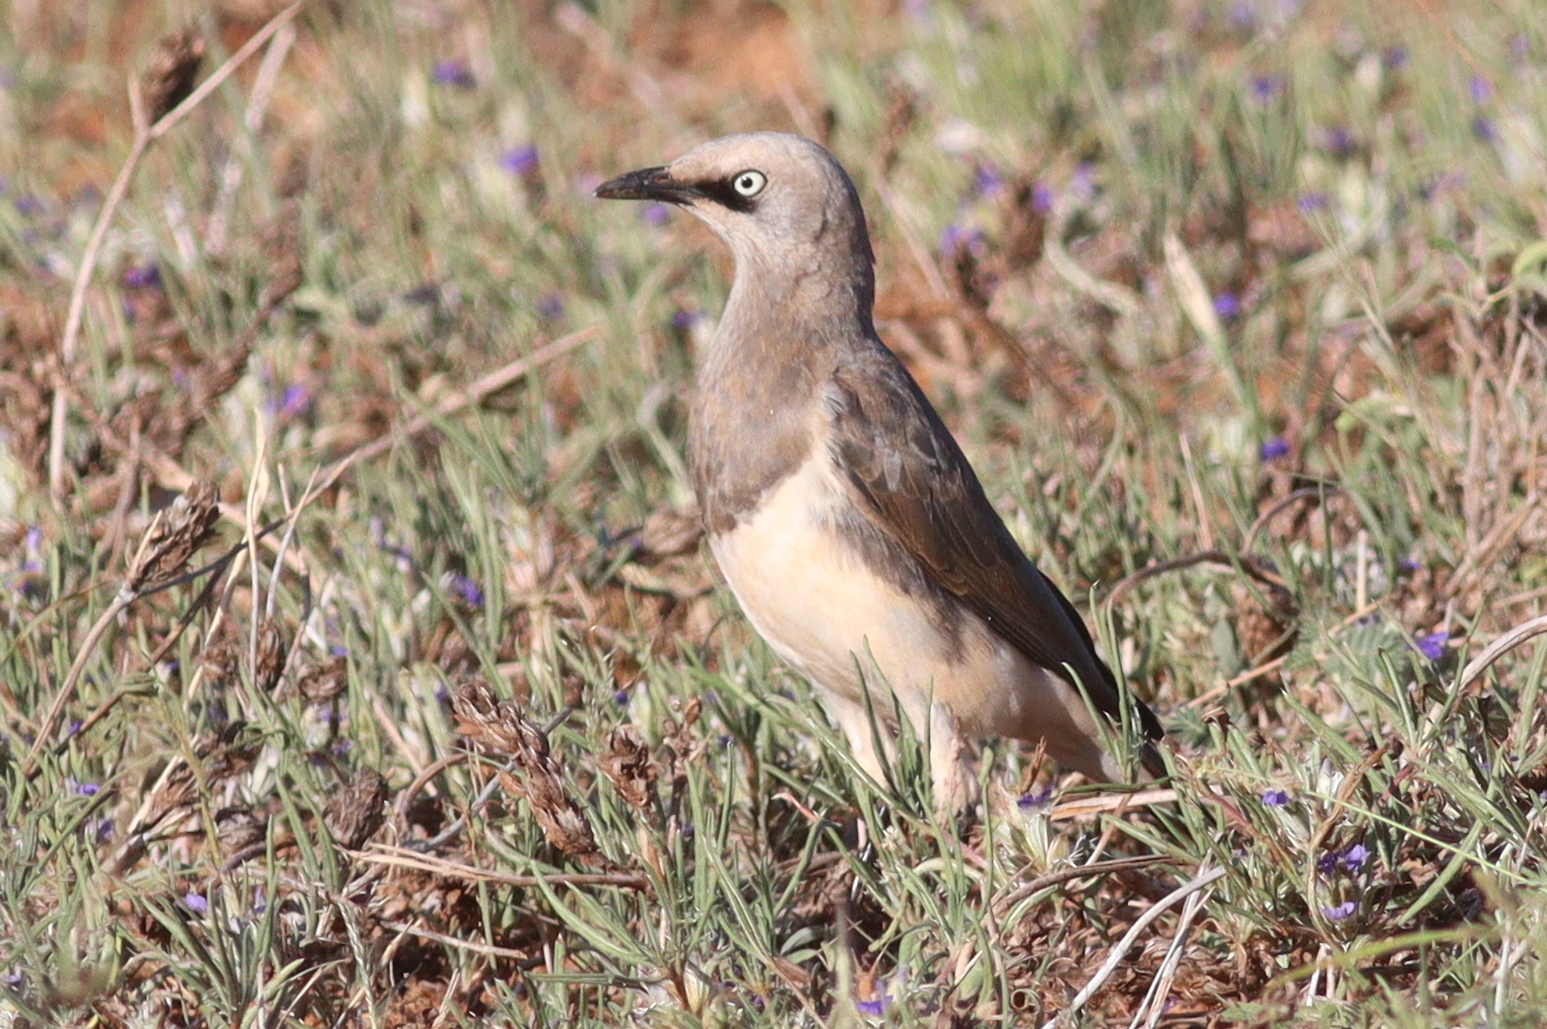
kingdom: Animalia
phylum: Chordata
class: Aves
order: Passeriformes
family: Sturnidae
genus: Lamprotornis
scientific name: Lamprotornis fischeri
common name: Fischer's starling
